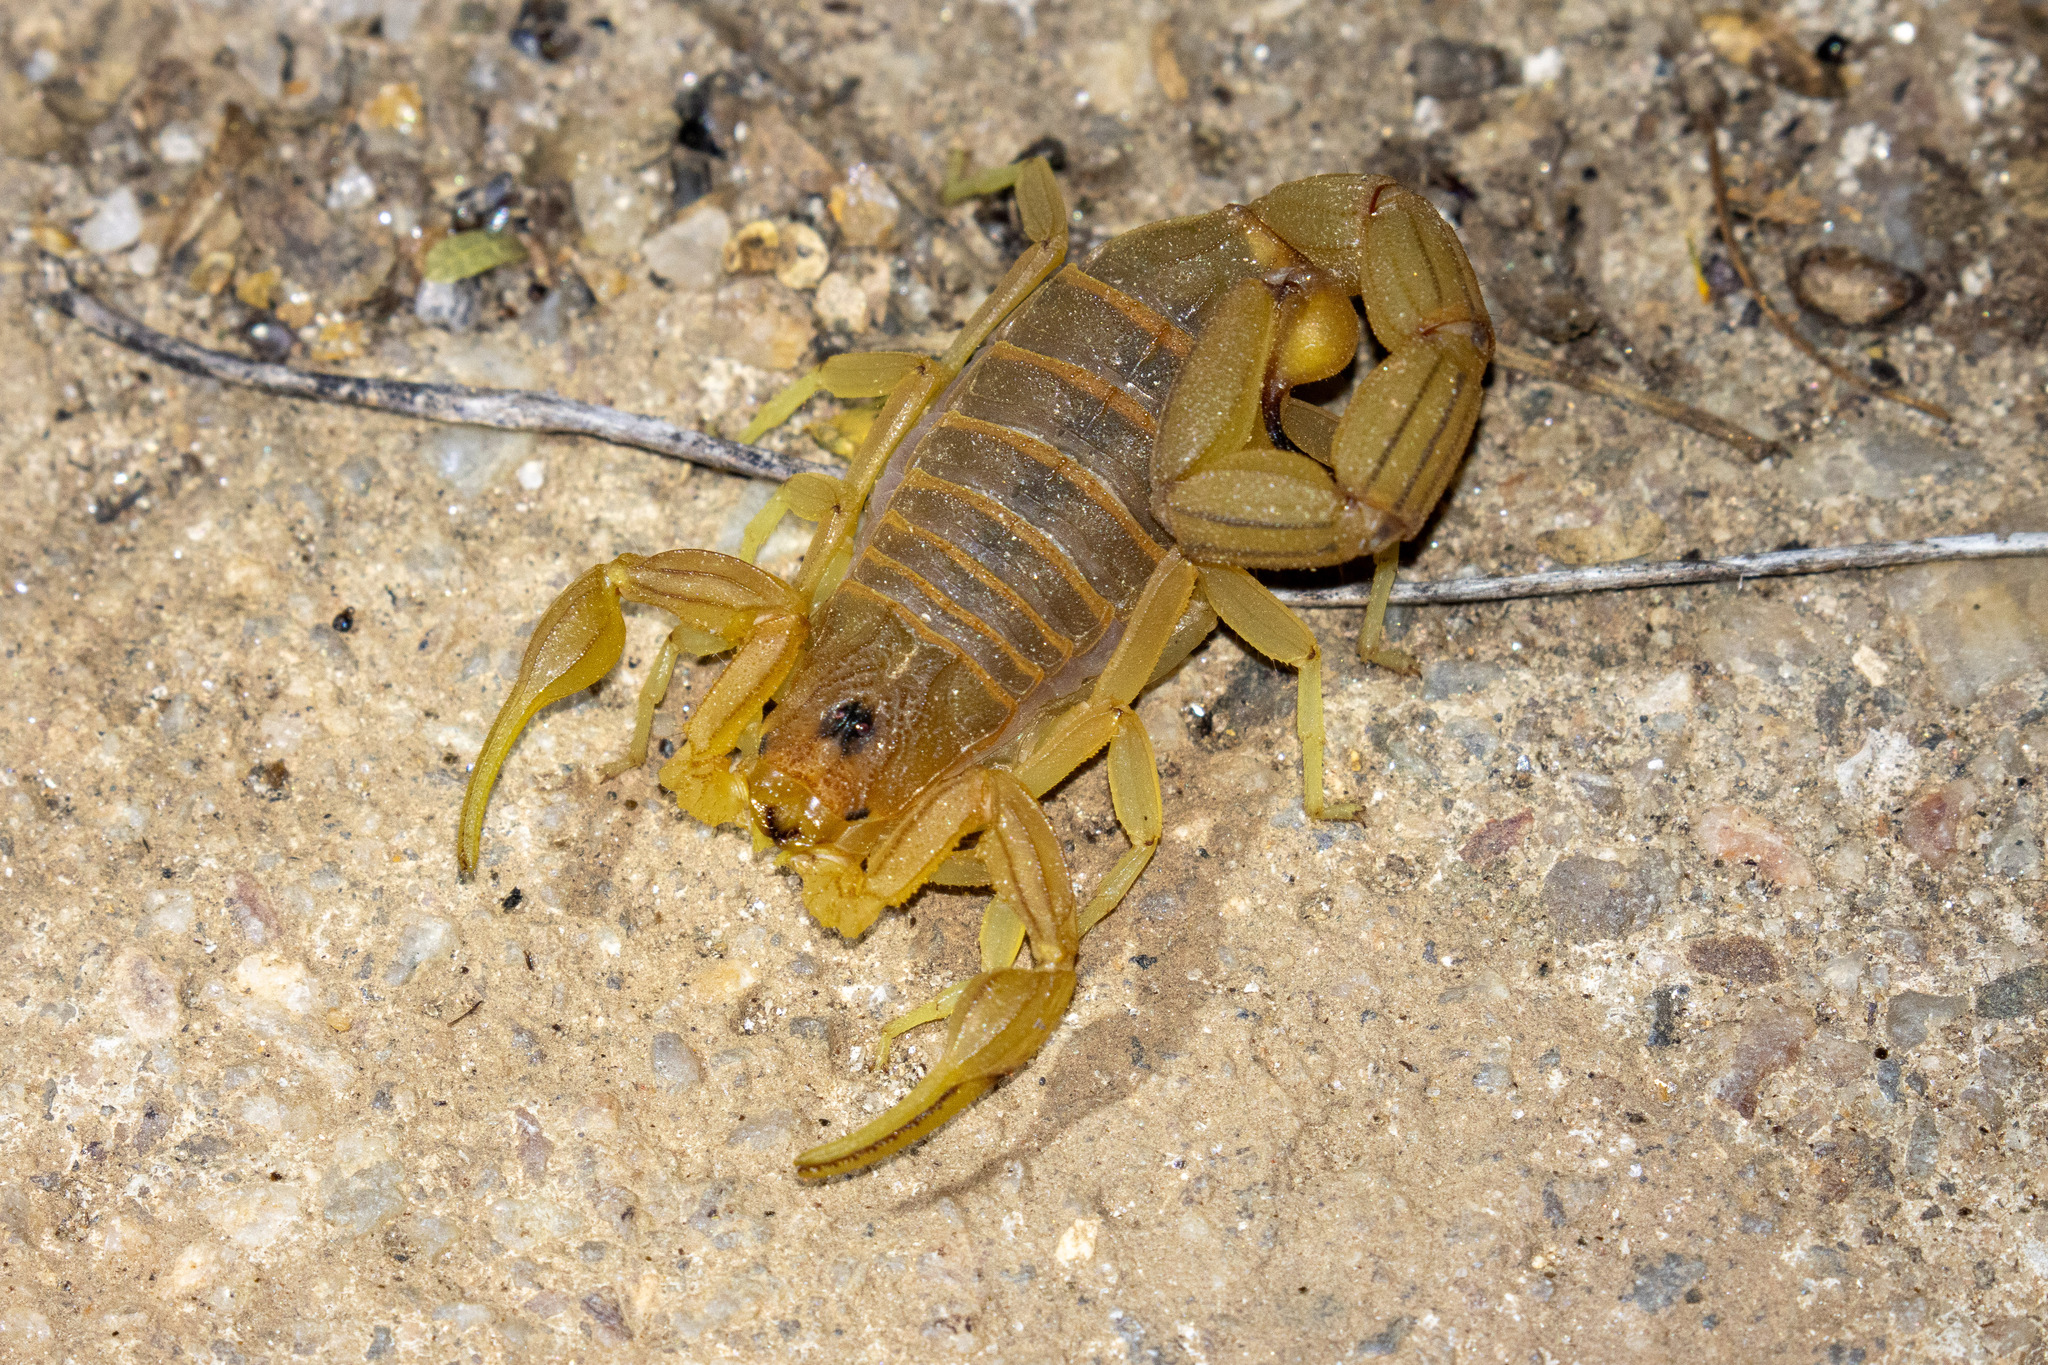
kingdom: Animalia
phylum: Arthropoda
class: Arachnida
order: Scorpiones
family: Buthidae
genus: Jaguajir
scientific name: Jaguajir rochae
